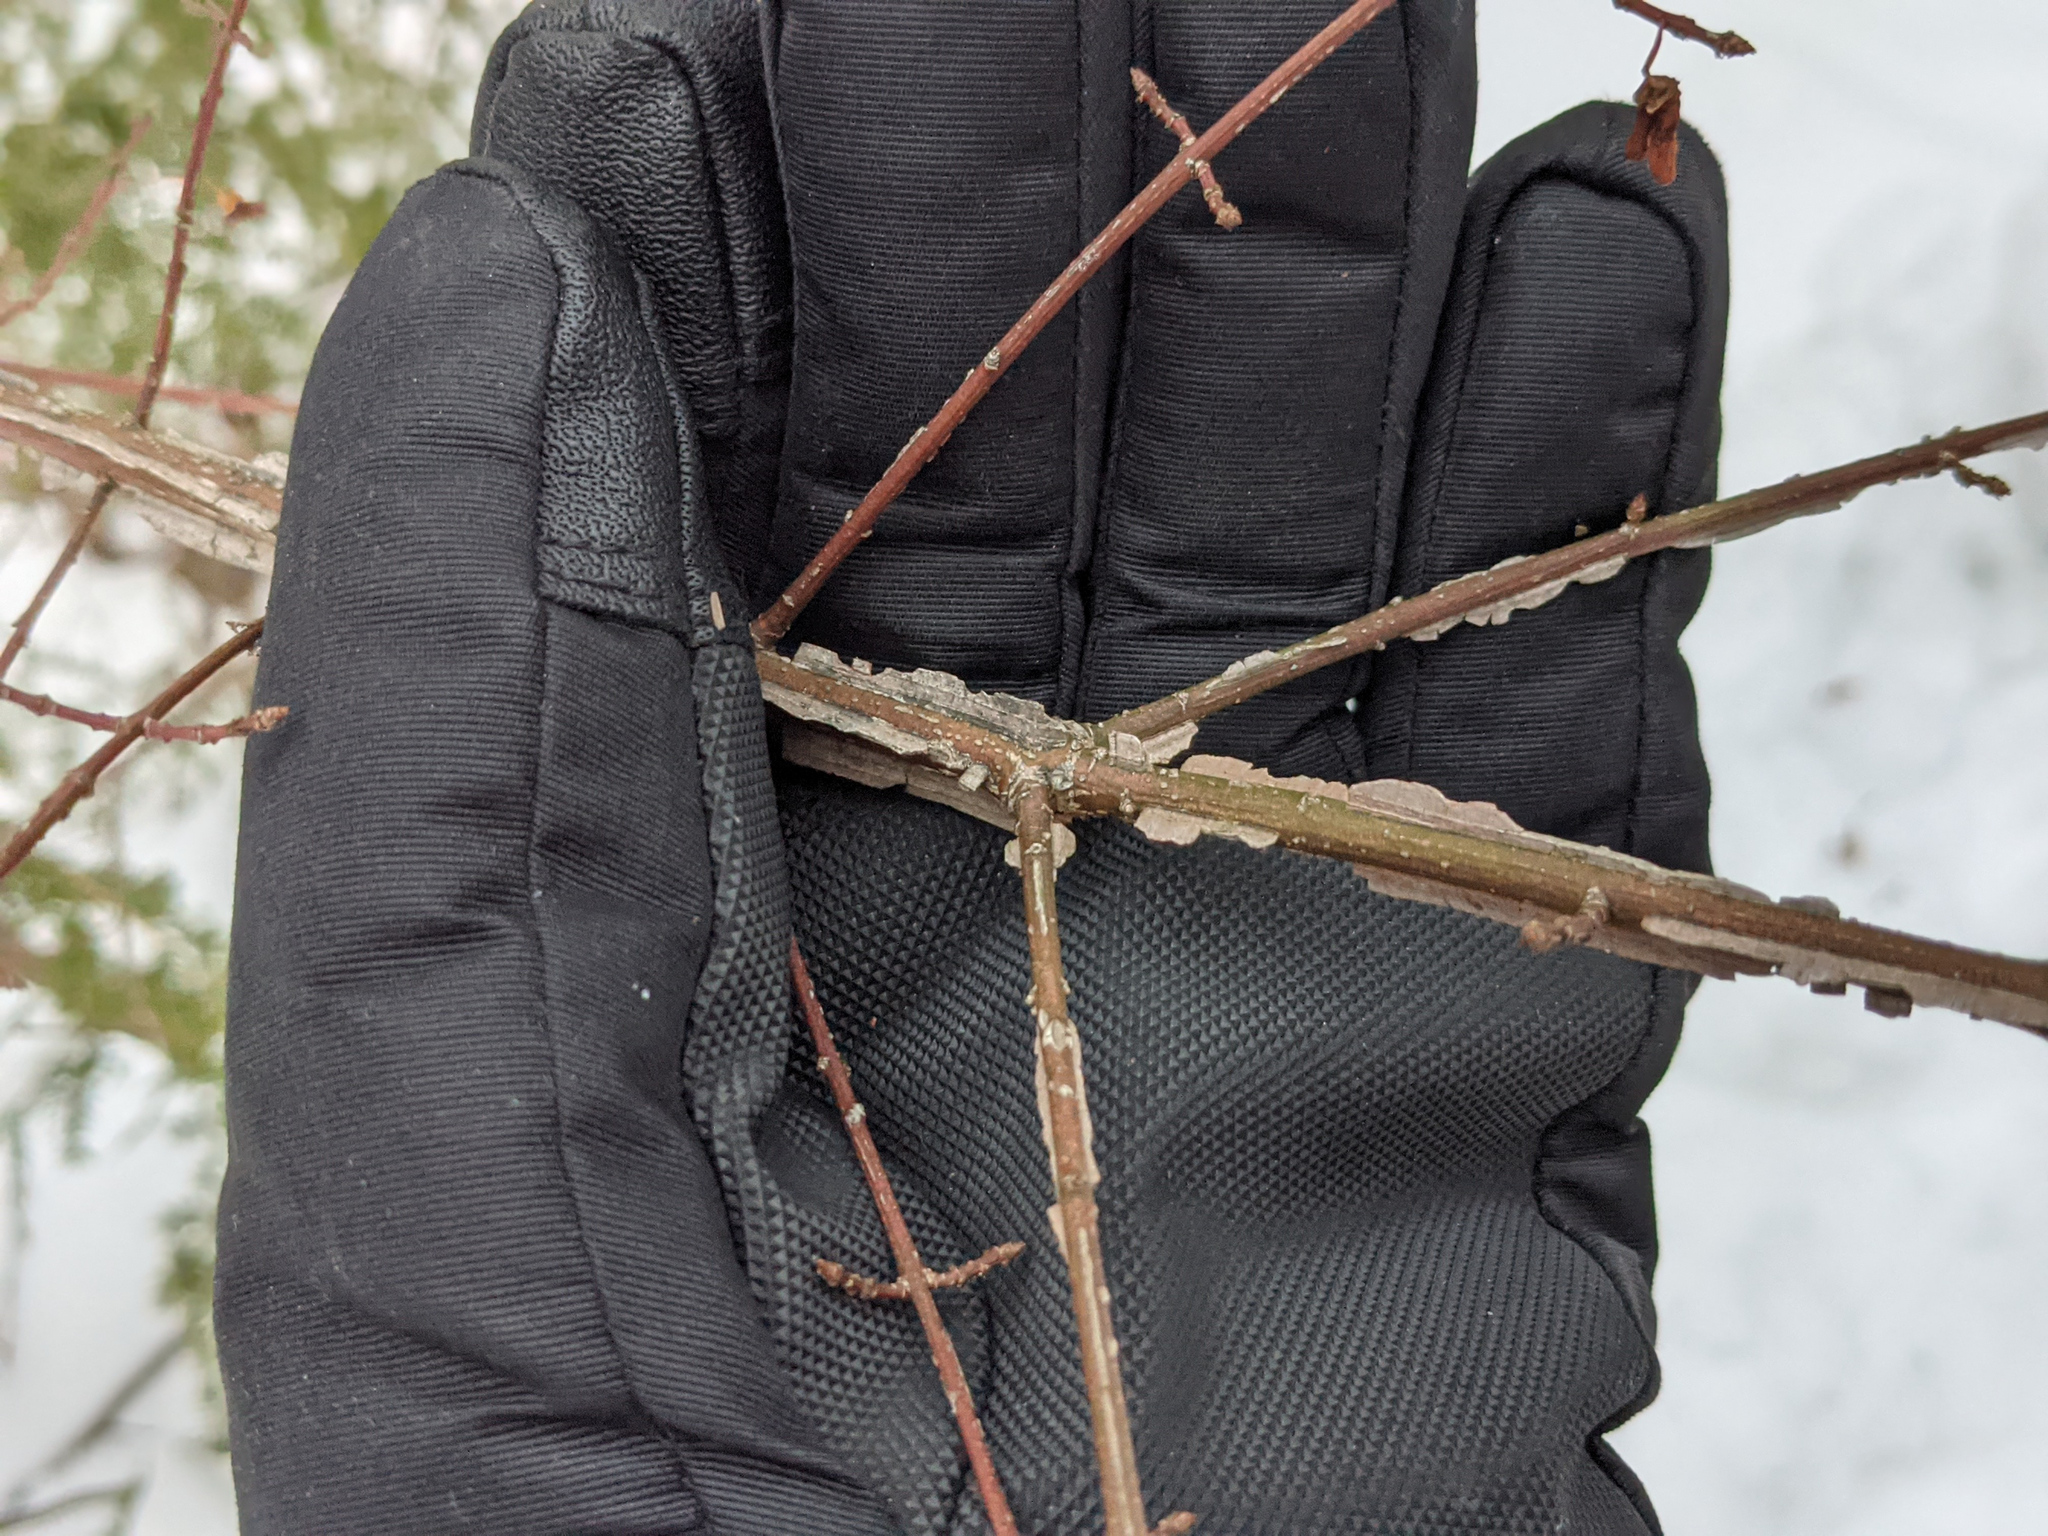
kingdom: Plantae
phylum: Tracheophyta
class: Magnoliopsida
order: Celastrales
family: Celastraceae
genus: Euonymus
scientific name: Euonymus alatus
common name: Winged euonymus
